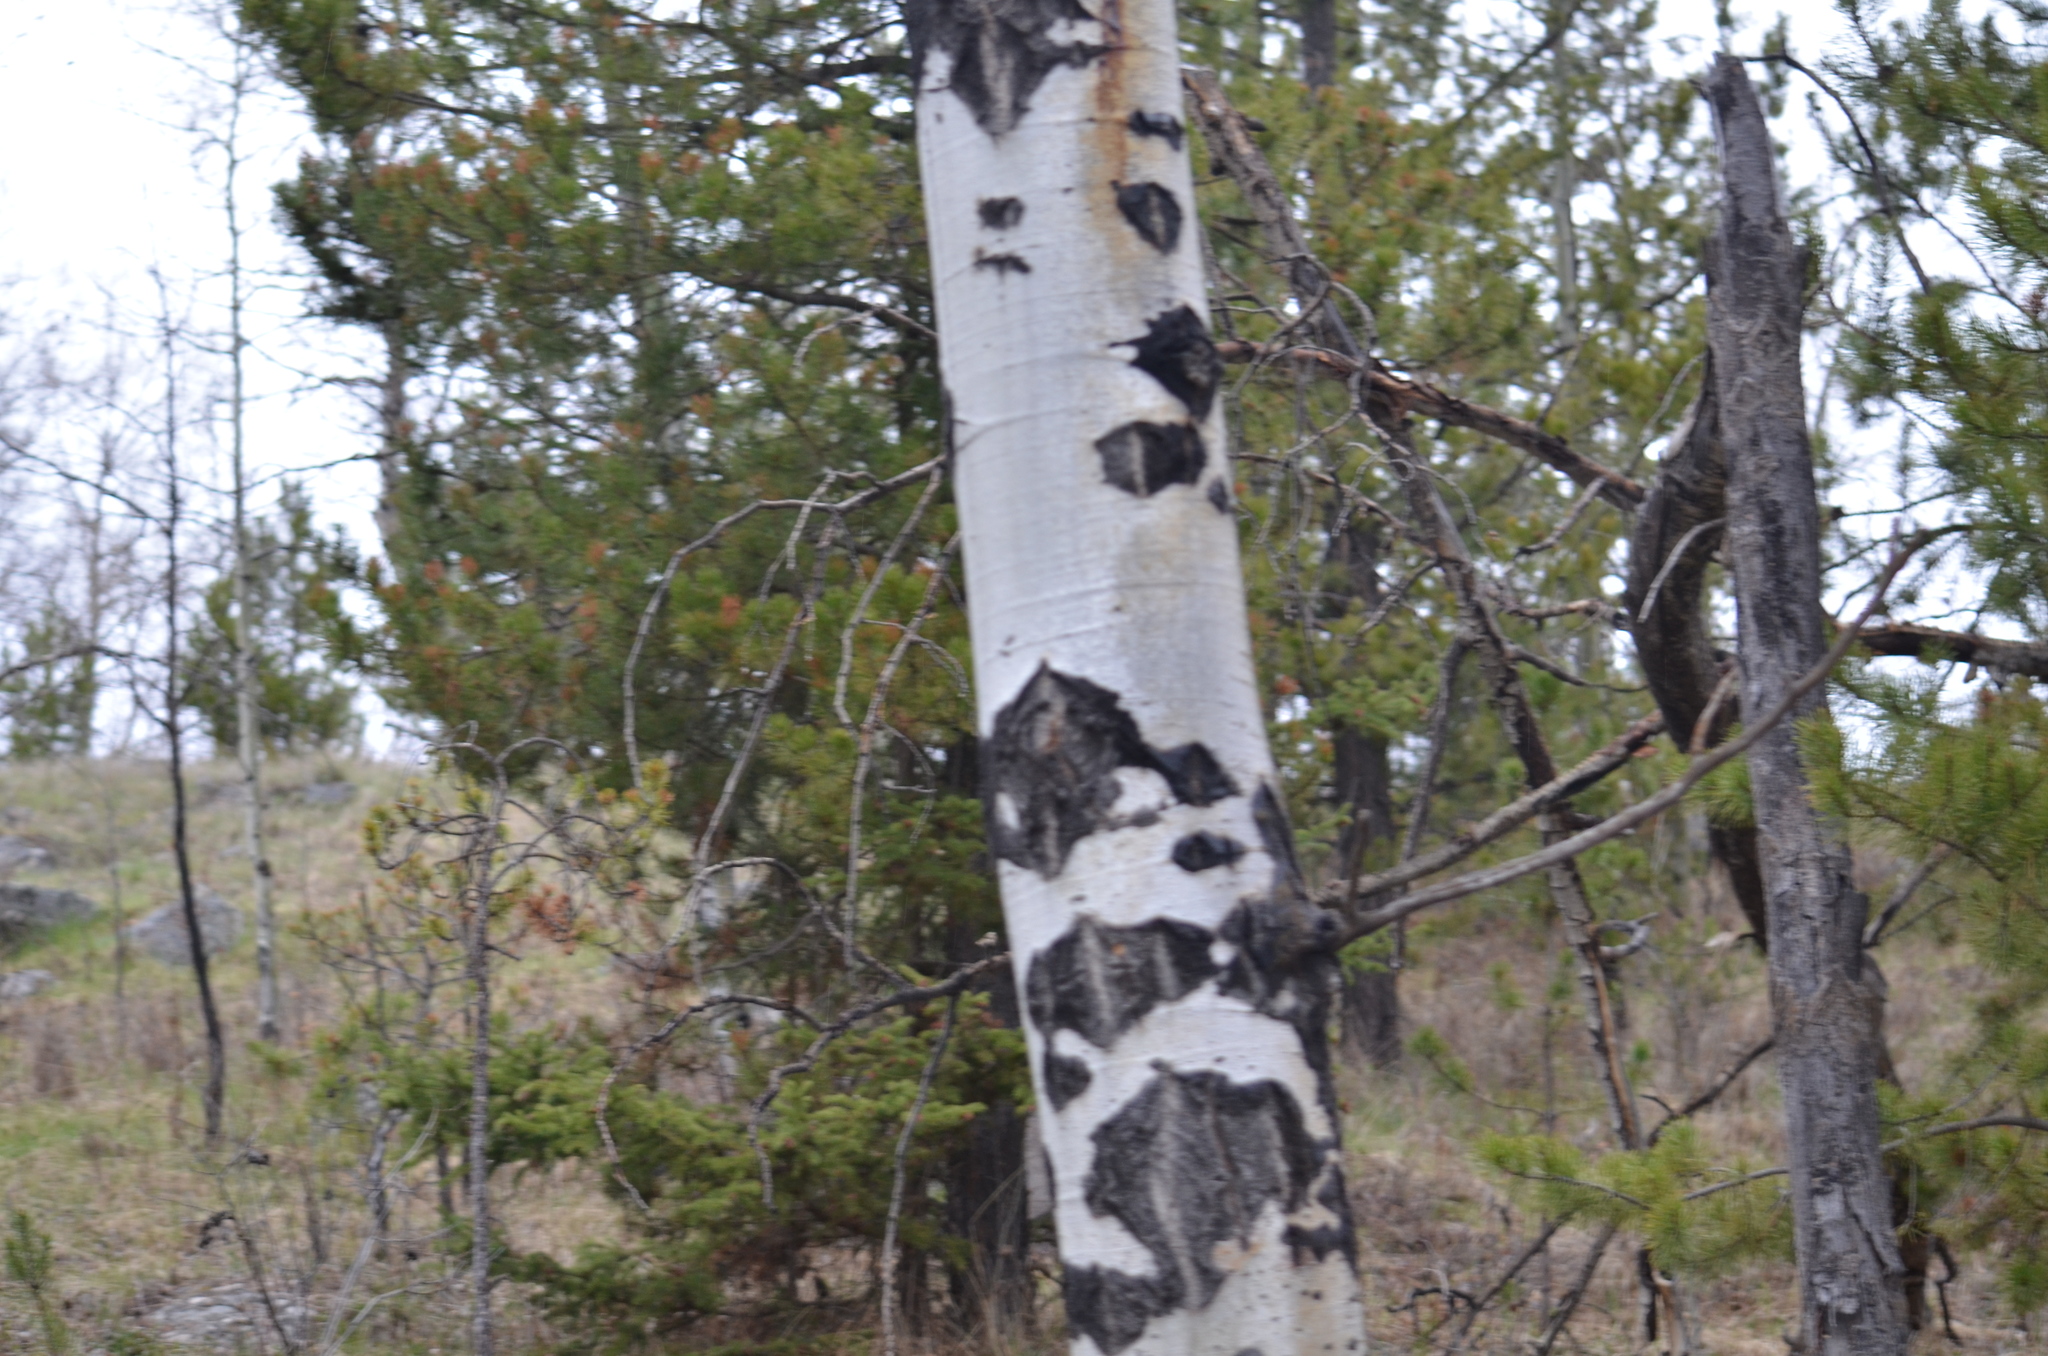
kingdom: Plantae
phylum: Tracheophyta
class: Magnoliopsida
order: Malpighiales
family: Salicaceae
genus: Populus
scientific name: Populus tremuloides
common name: Quaking aspen
